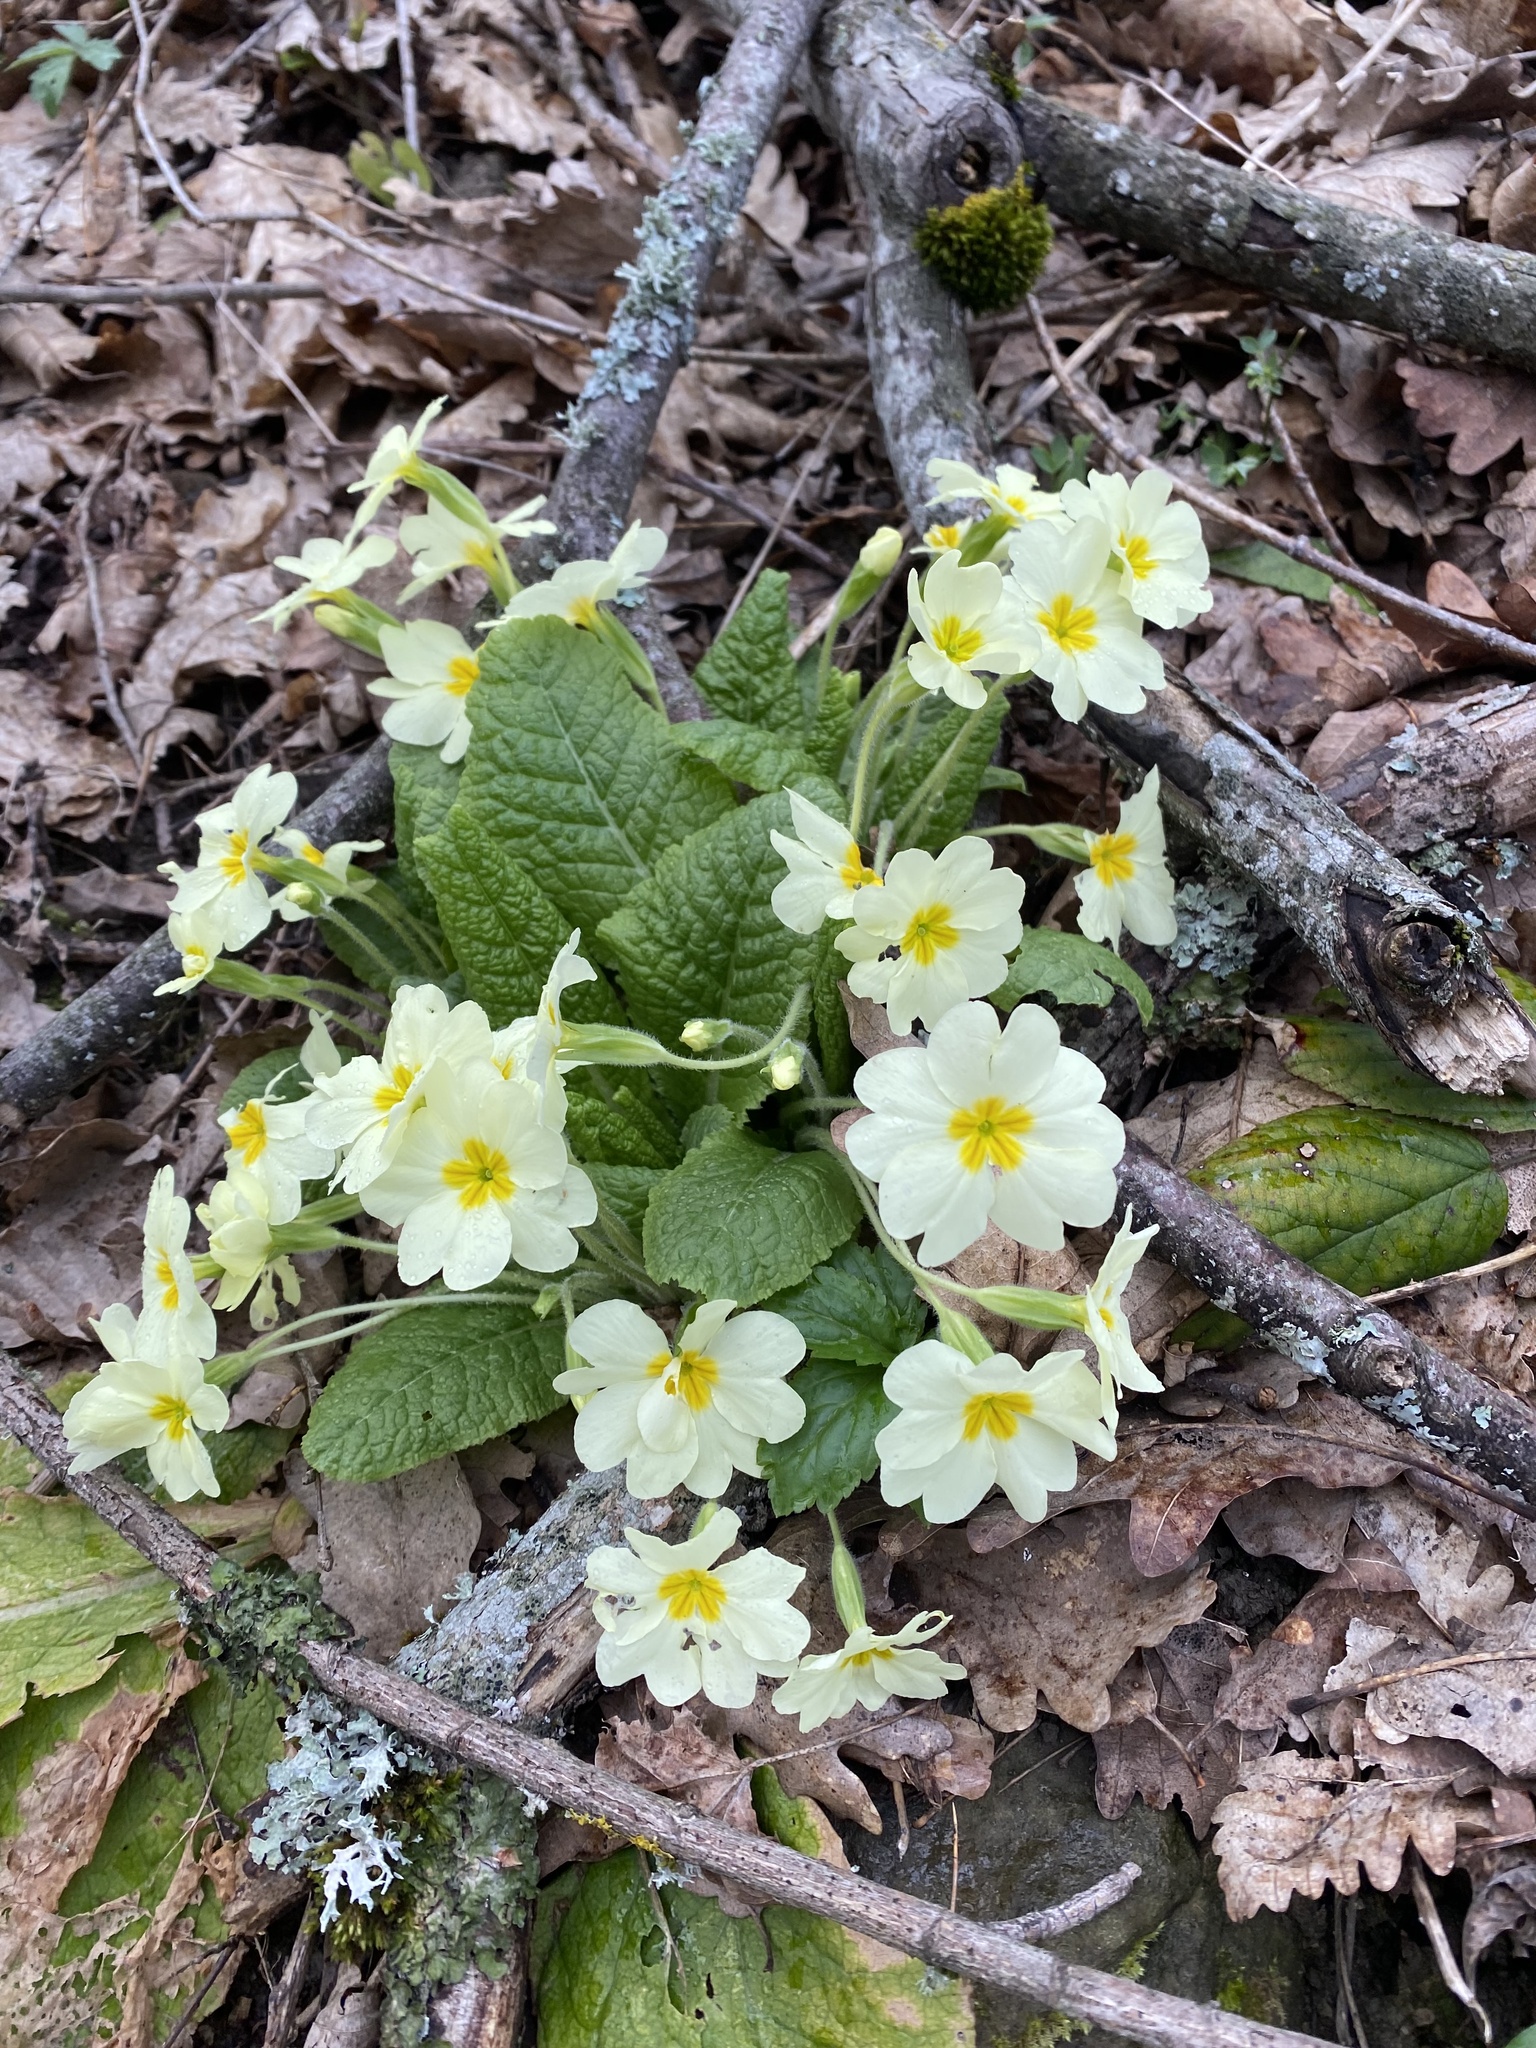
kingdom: Plantae
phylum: Tracheophyta
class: Magnoliopsida
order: Ericales
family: Primulaceae
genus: Primula
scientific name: Primula vulgaris
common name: Primrose
